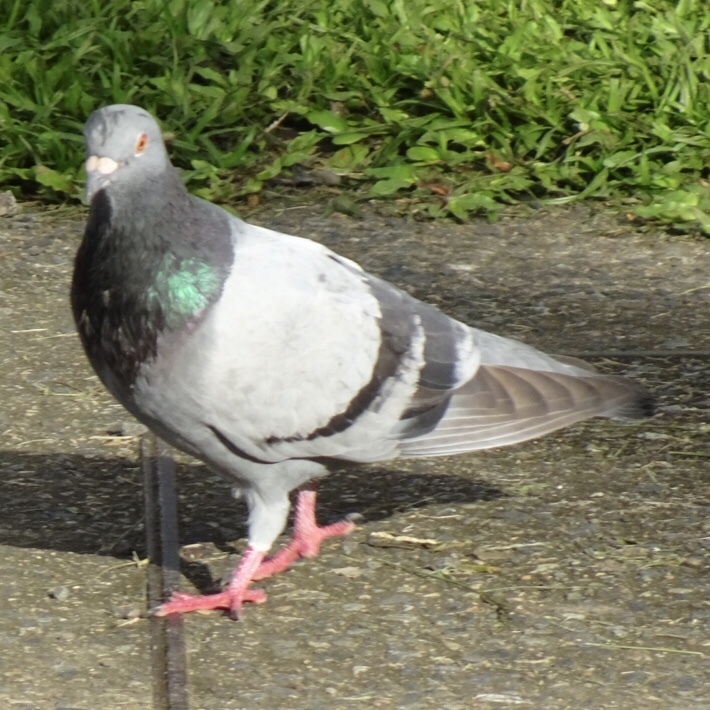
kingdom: Animalia
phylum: Chordata
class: Aves
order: Columbiformes
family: Columbidae
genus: Columba
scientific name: Columba livia
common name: Rock pigeon
